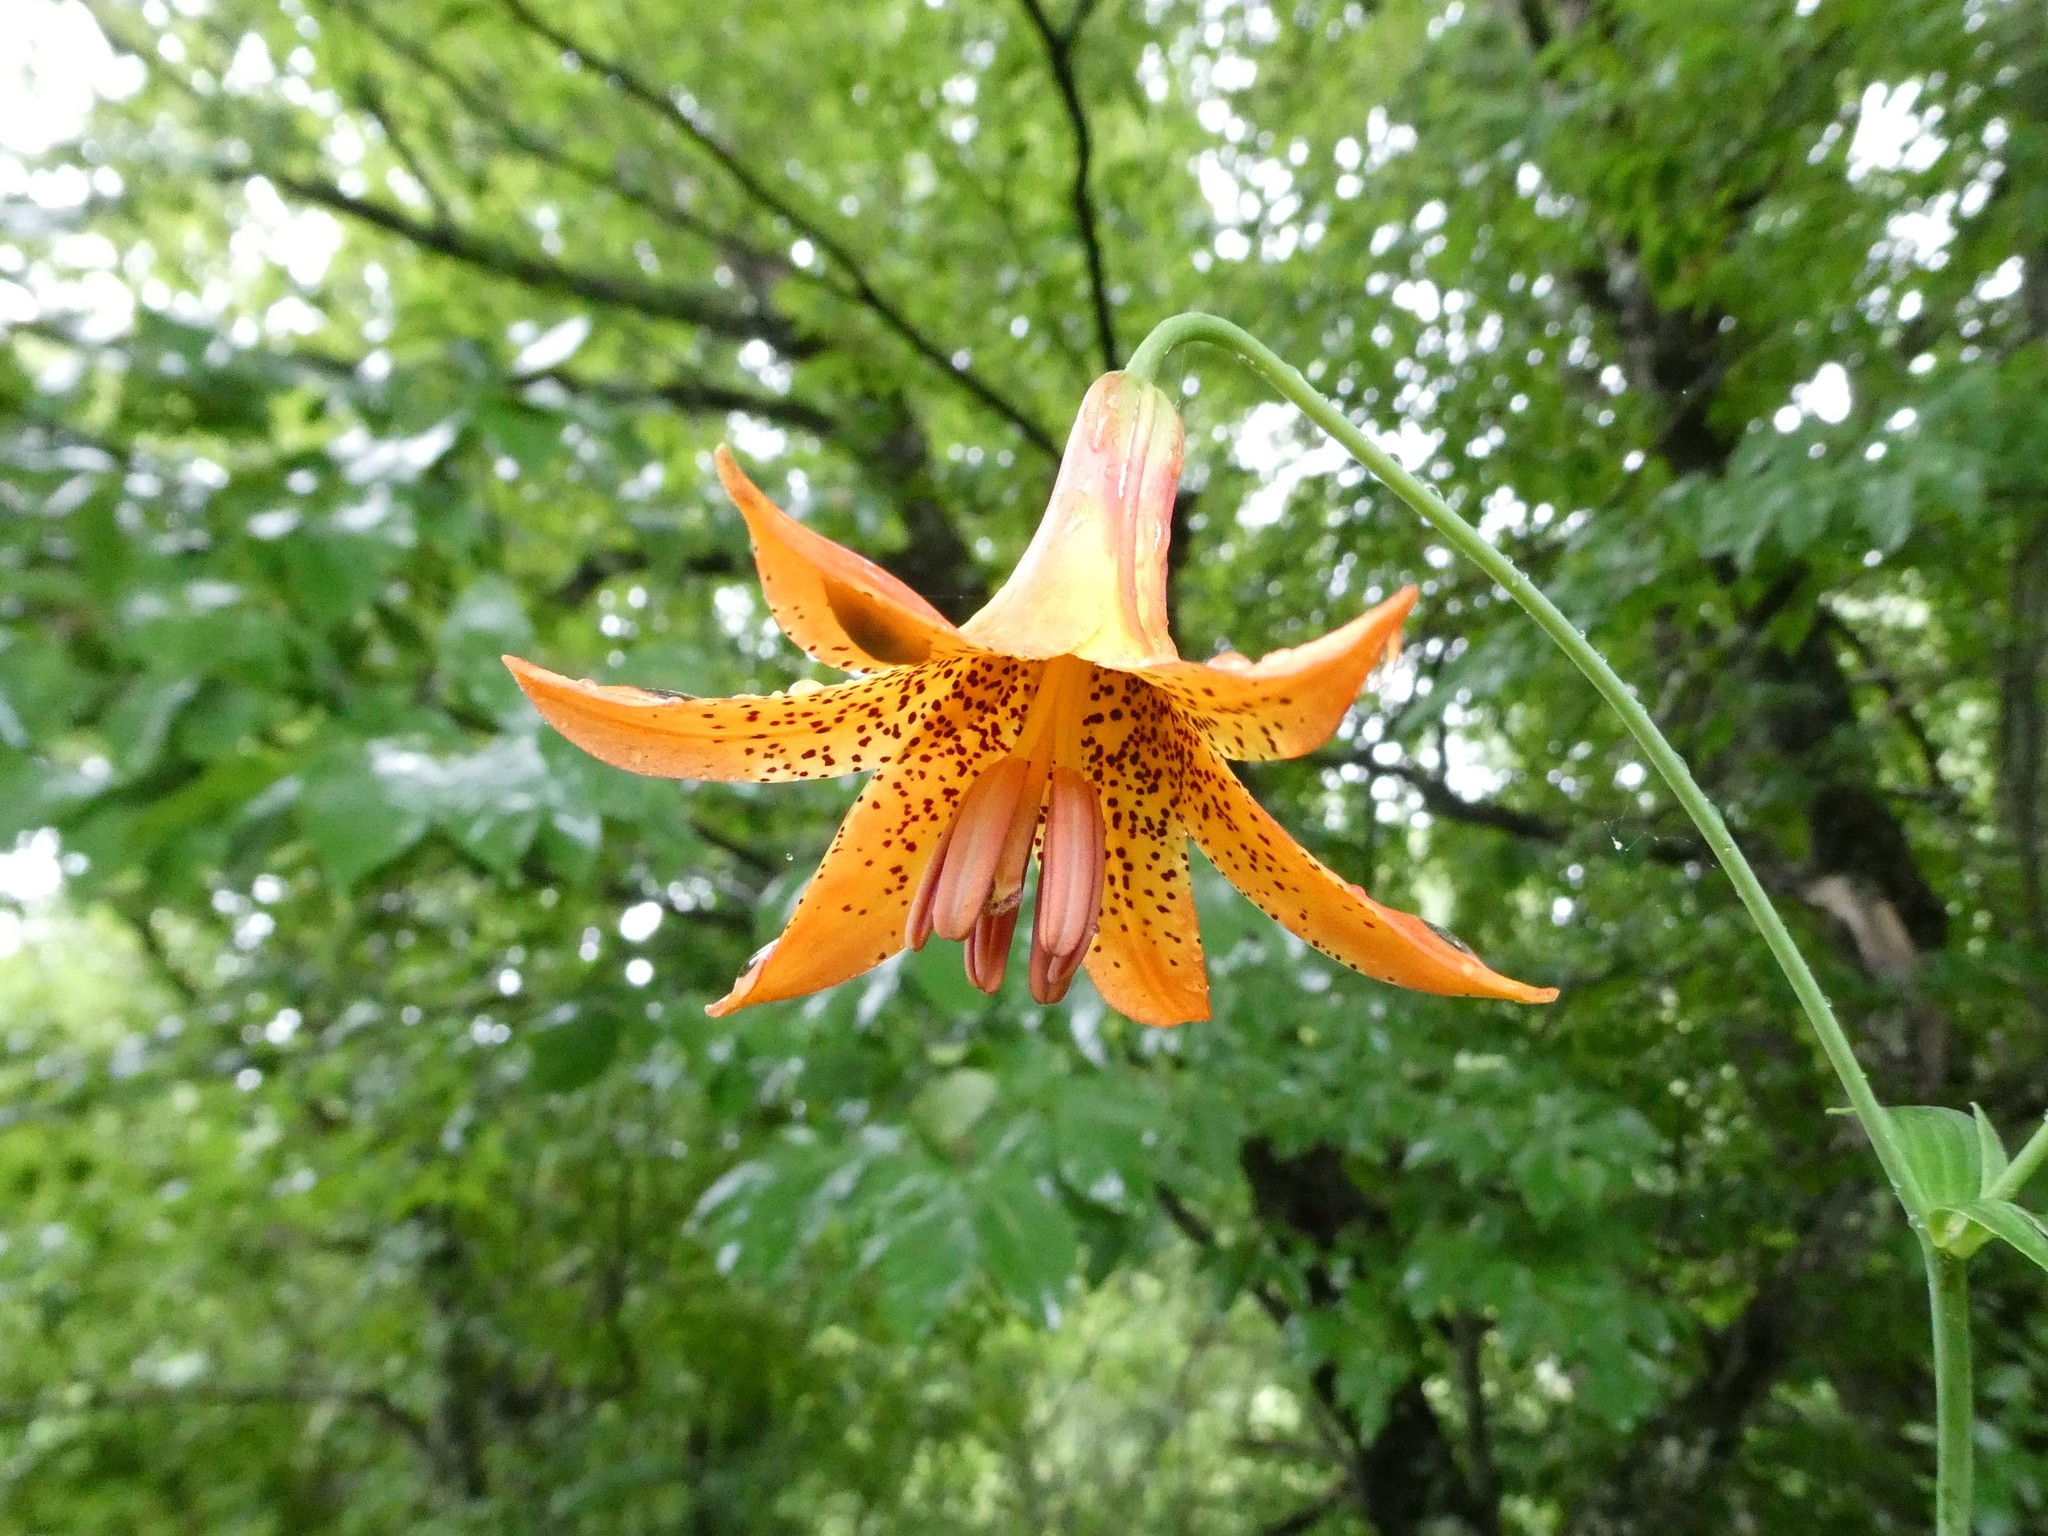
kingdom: Plantae
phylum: Tracheophyta
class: Liliopsida
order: Liliales
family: Liliaceae
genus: Lilium
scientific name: Lilium canadense
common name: Canada lily
